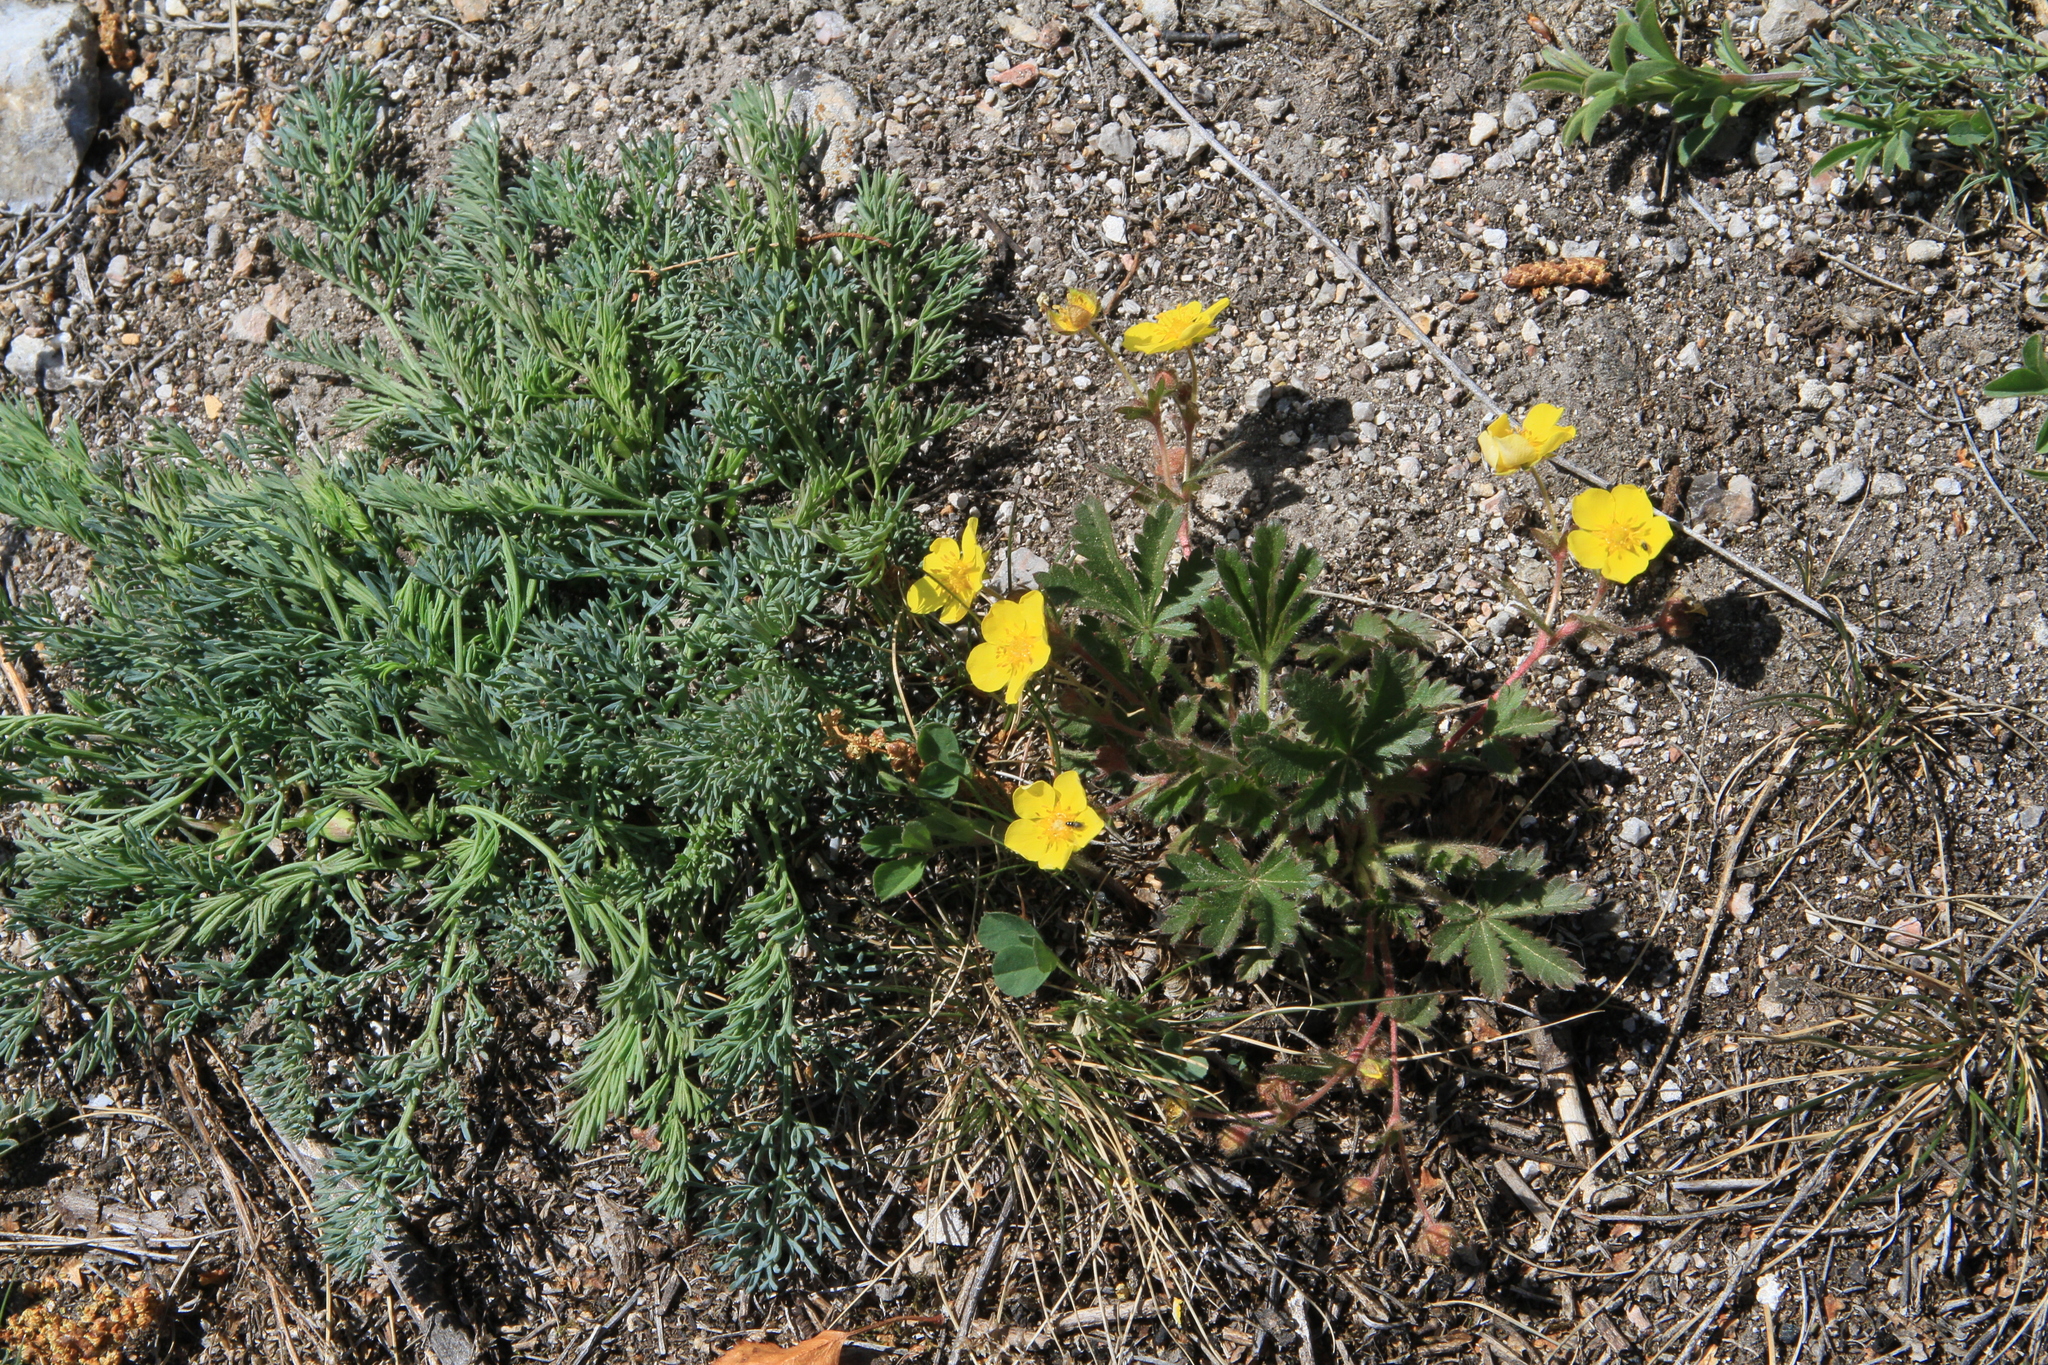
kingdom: Plantae
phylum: Tracheophyta
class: Magnoliopsida
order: Rosales
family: Rosaceae
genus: Potentilla
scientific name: Potentilla humifusa
